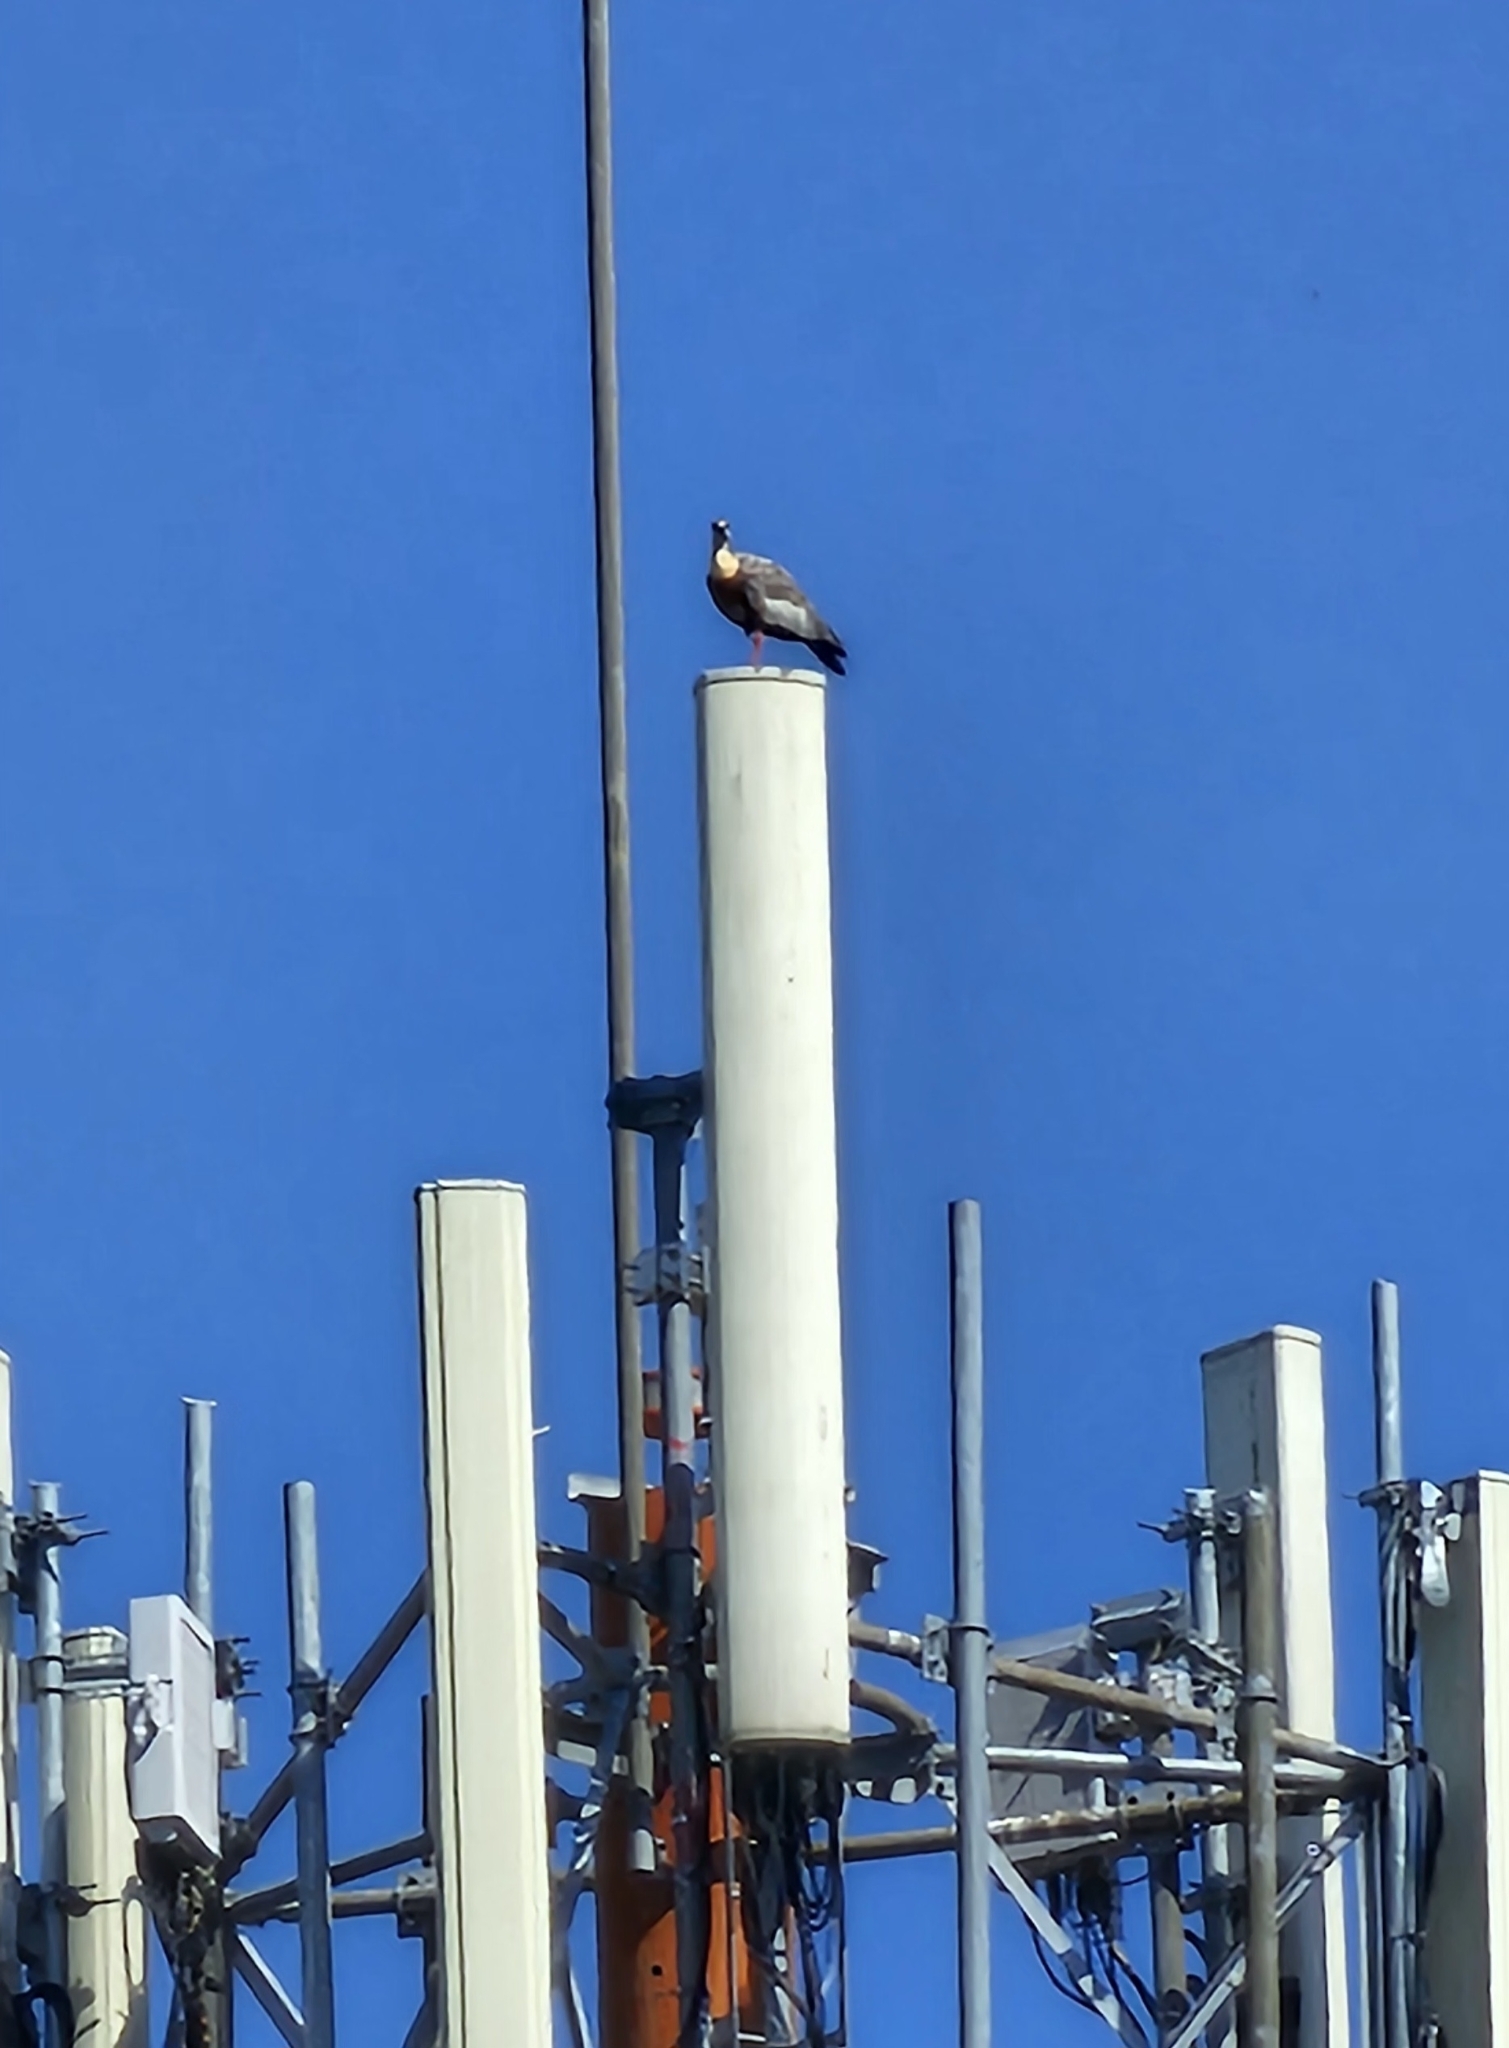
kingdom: Animalia
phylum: Chordata
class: Aves
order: Pelecaniformes
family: Threskiornithidae
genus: Theristicus
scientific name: Theristicus caudatus
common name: Buff-necked ibis
